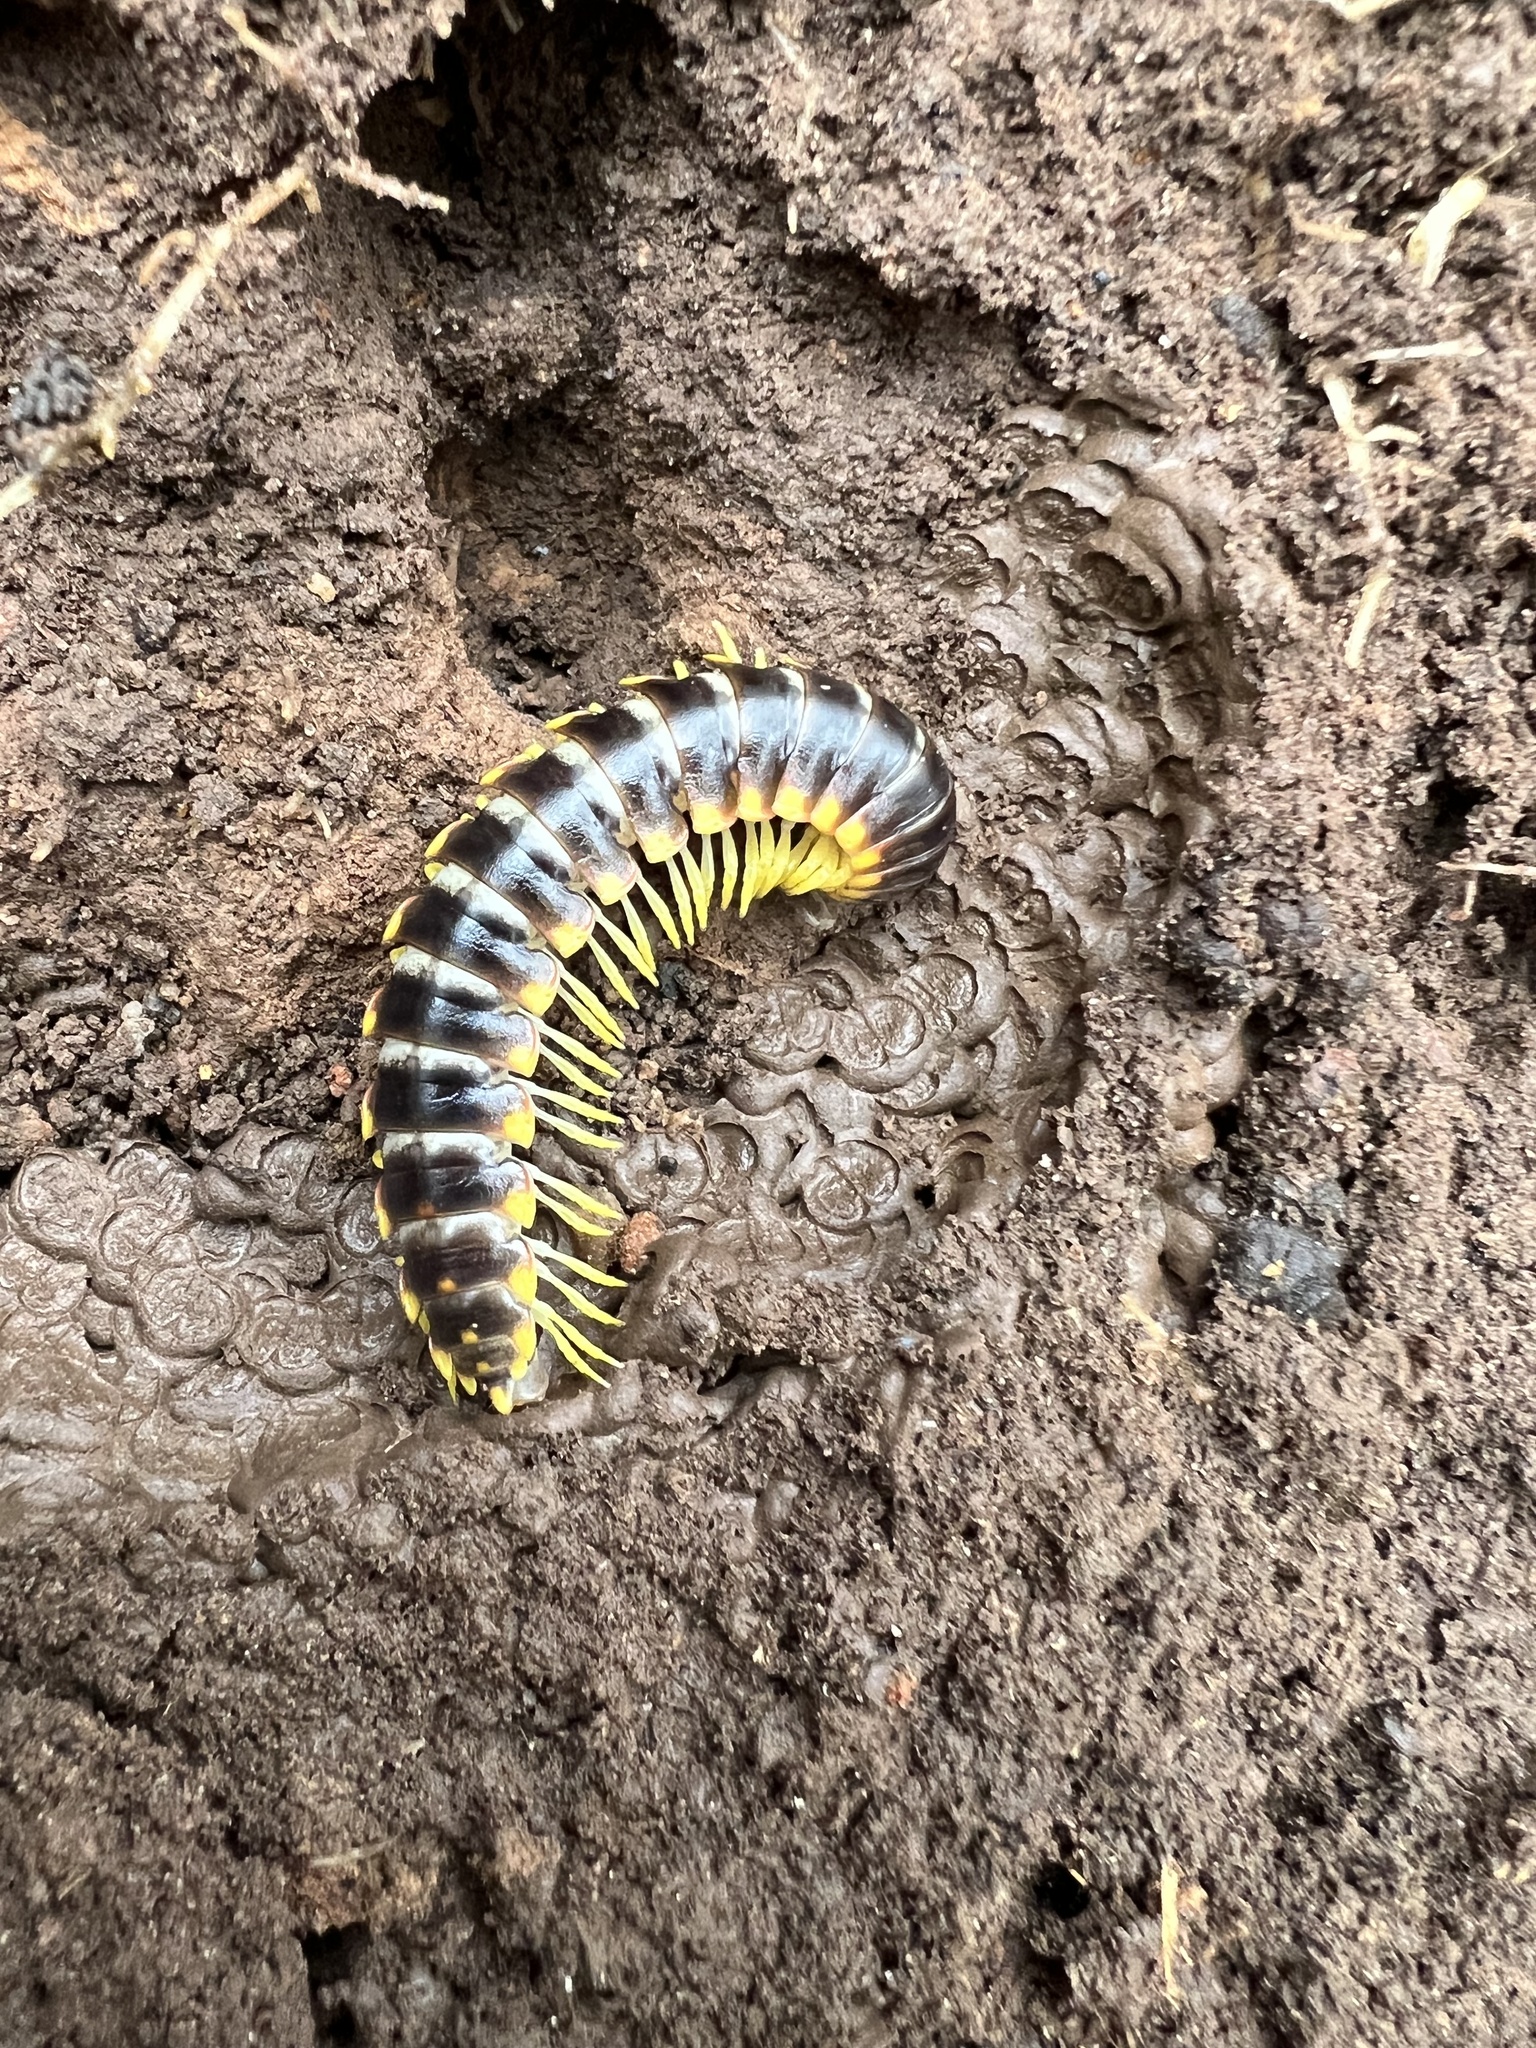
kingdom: Animalia
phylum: Arthropoda
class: Diplopoda
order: Polydesmida
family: Xystodesmidae
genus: Apheloria
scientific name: Apheloria tigana
